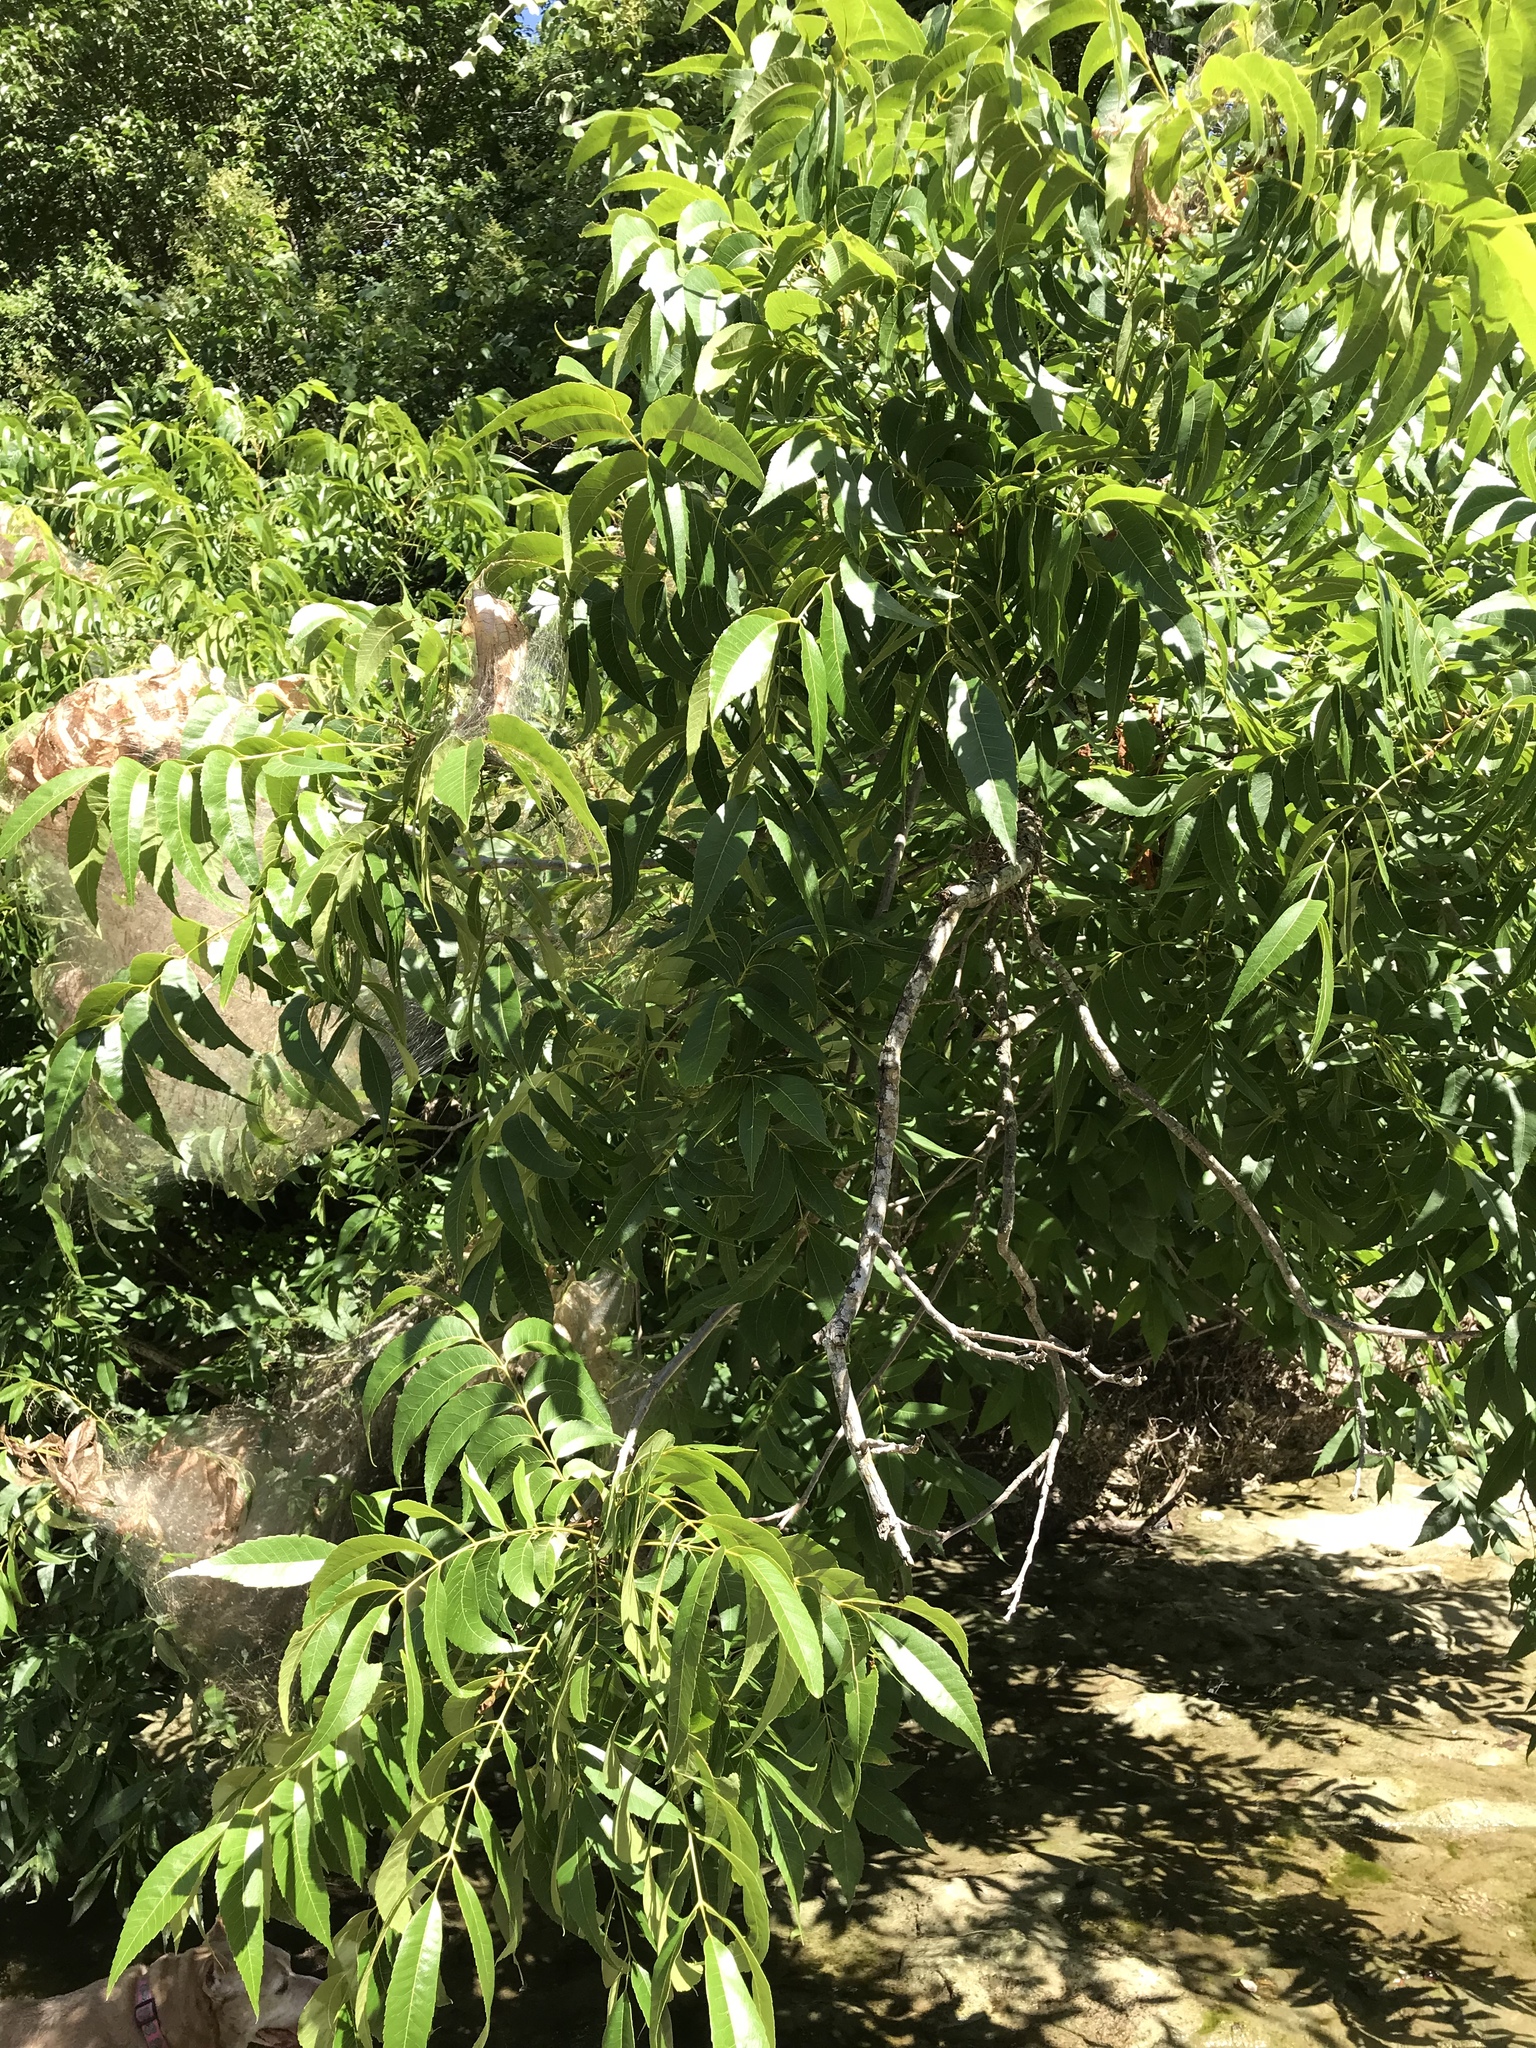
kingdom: Animalia
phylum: Arthropoda
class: Insecta
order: Lepidoptera
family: Erebidae
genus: Hyphantria
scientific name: Hyphantria cunea
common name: American white moth
